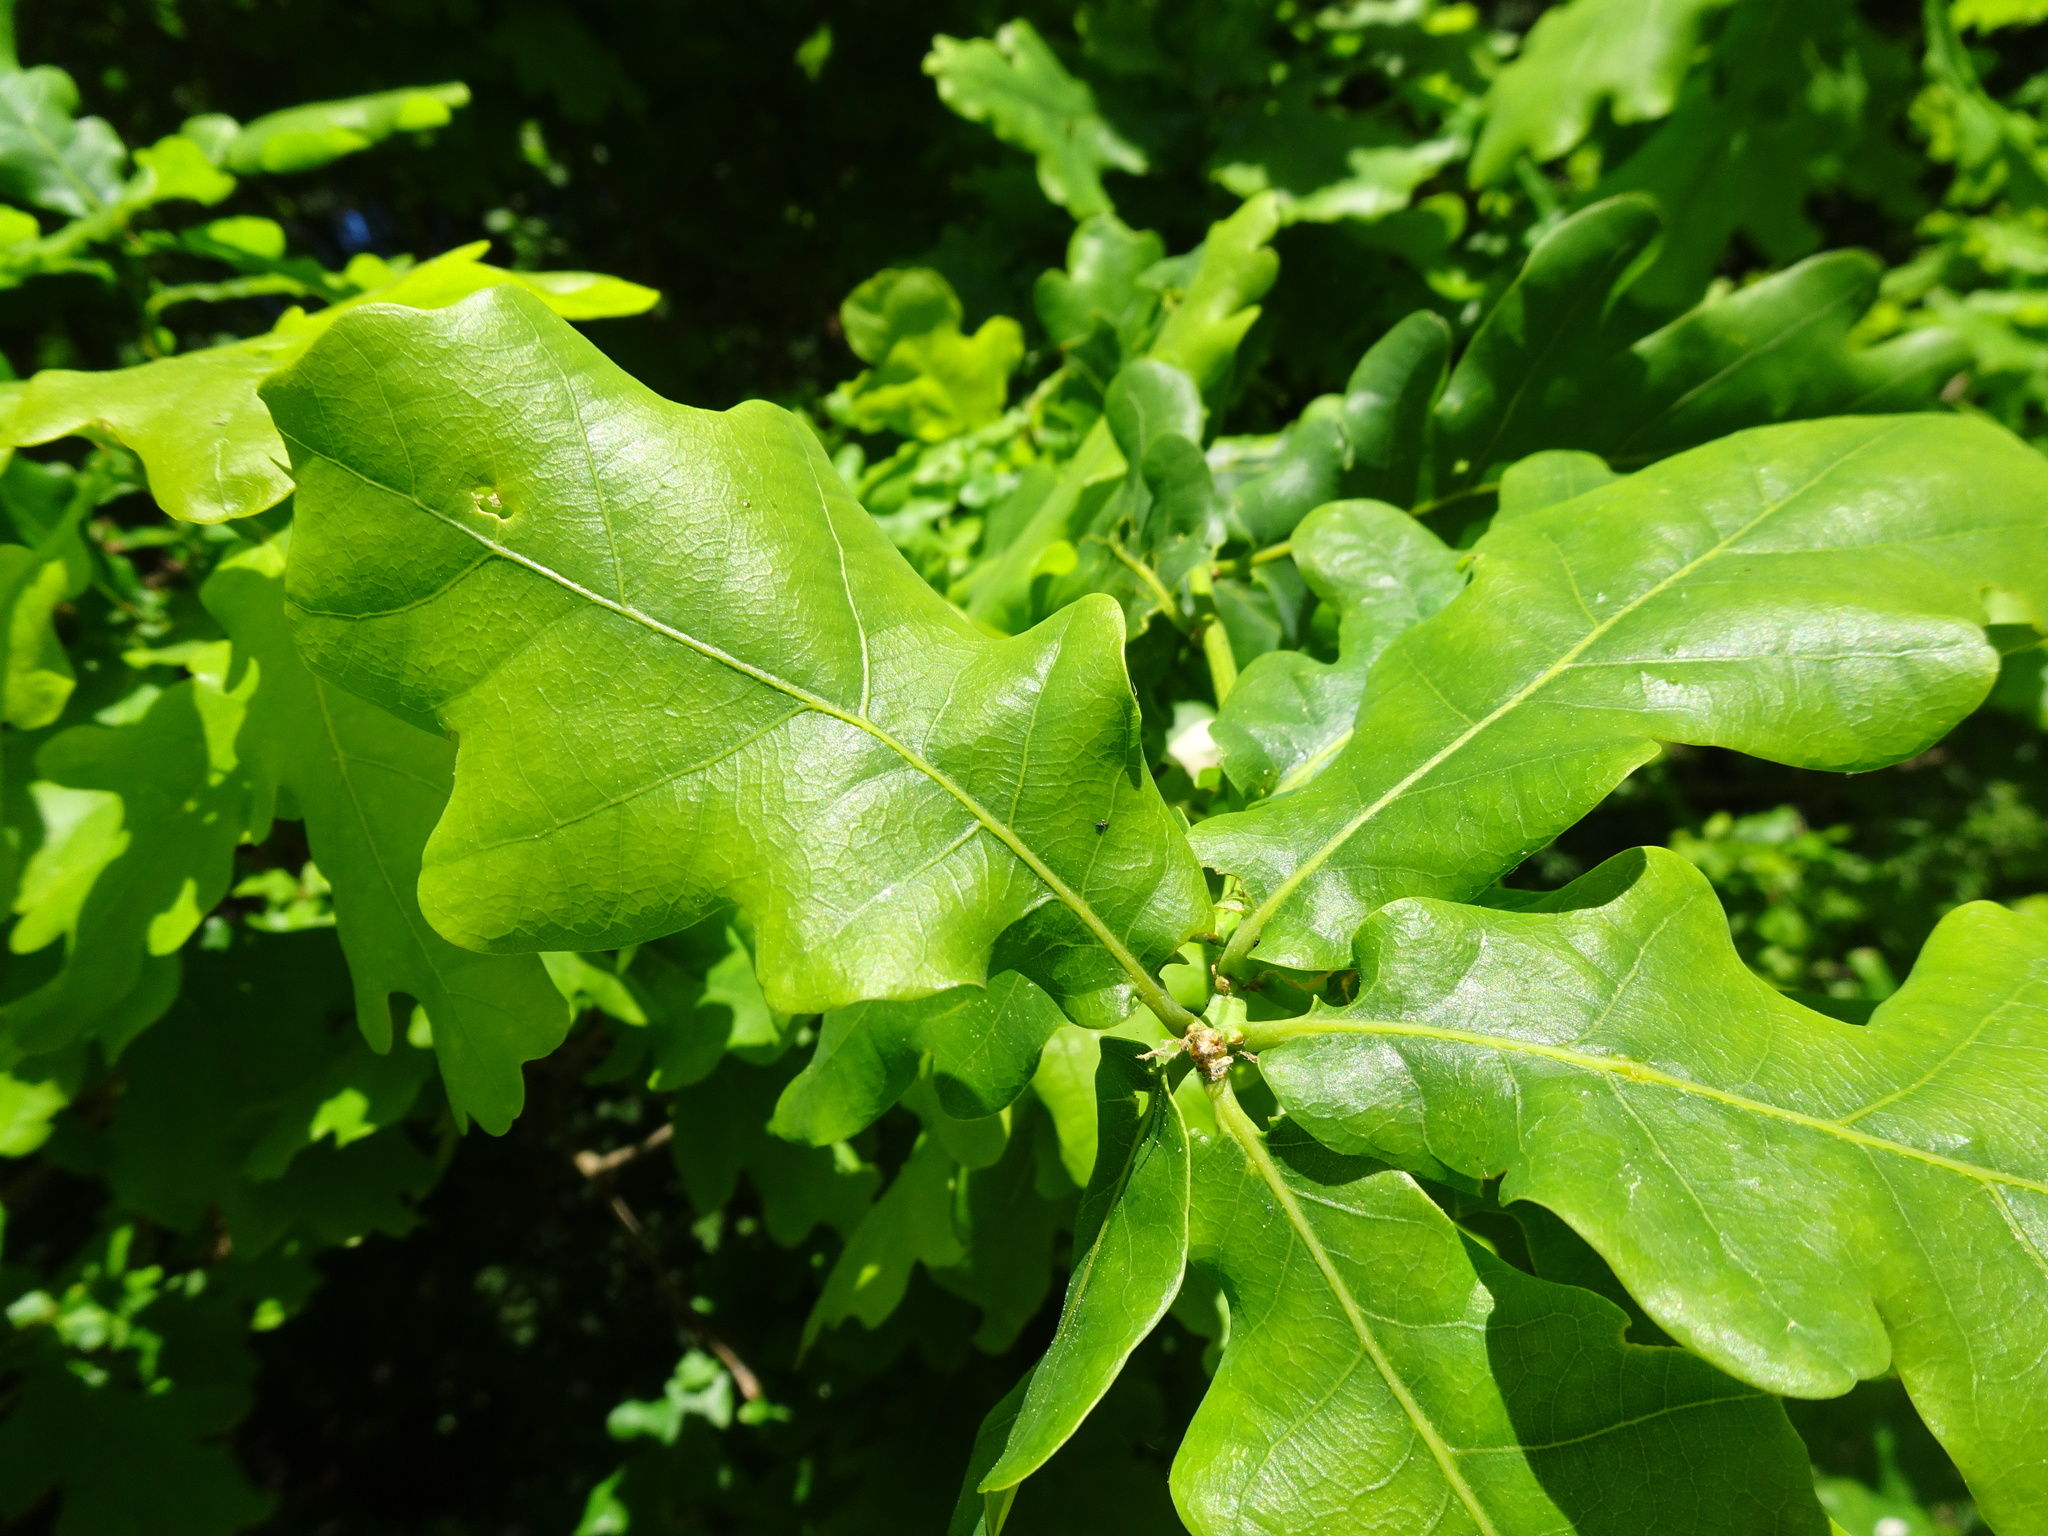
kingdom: Plantae
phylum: Tracheophyta
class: Magnoliopsida
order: Fagales
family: Fagaceae
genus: Quercus
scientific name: Quercus robur
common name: Pedunculate oak
